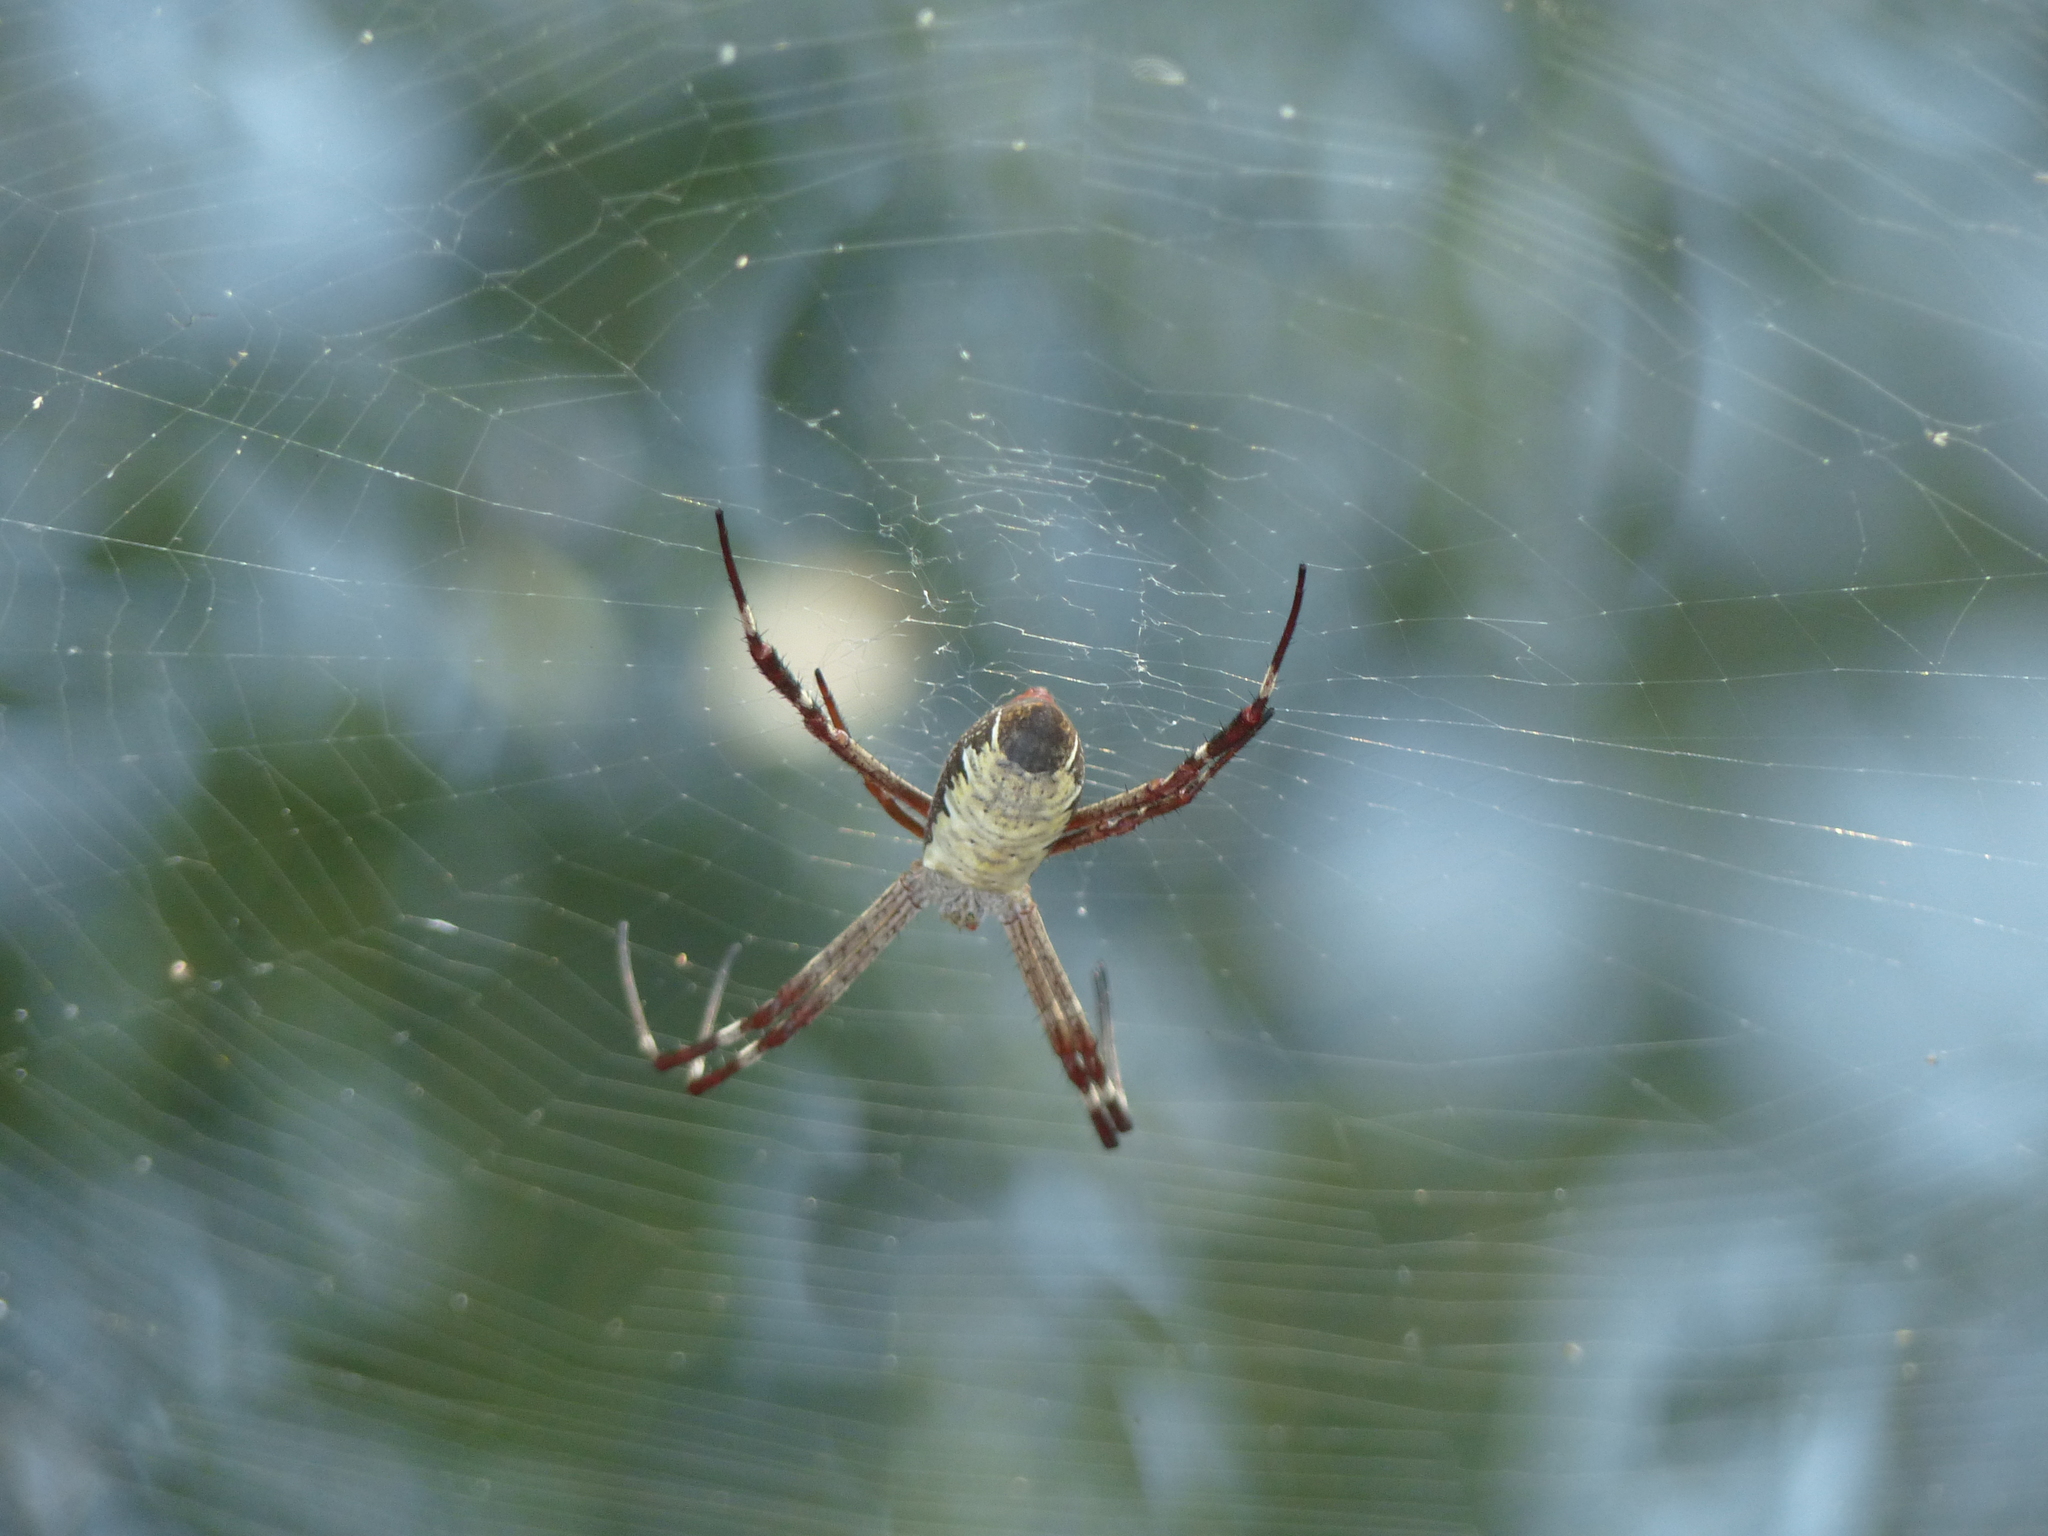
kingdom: Animalia
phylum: Arthropoda
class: Arachnida
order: Araneae
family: Araneidae
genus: Argiope
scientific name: Argiope radon
